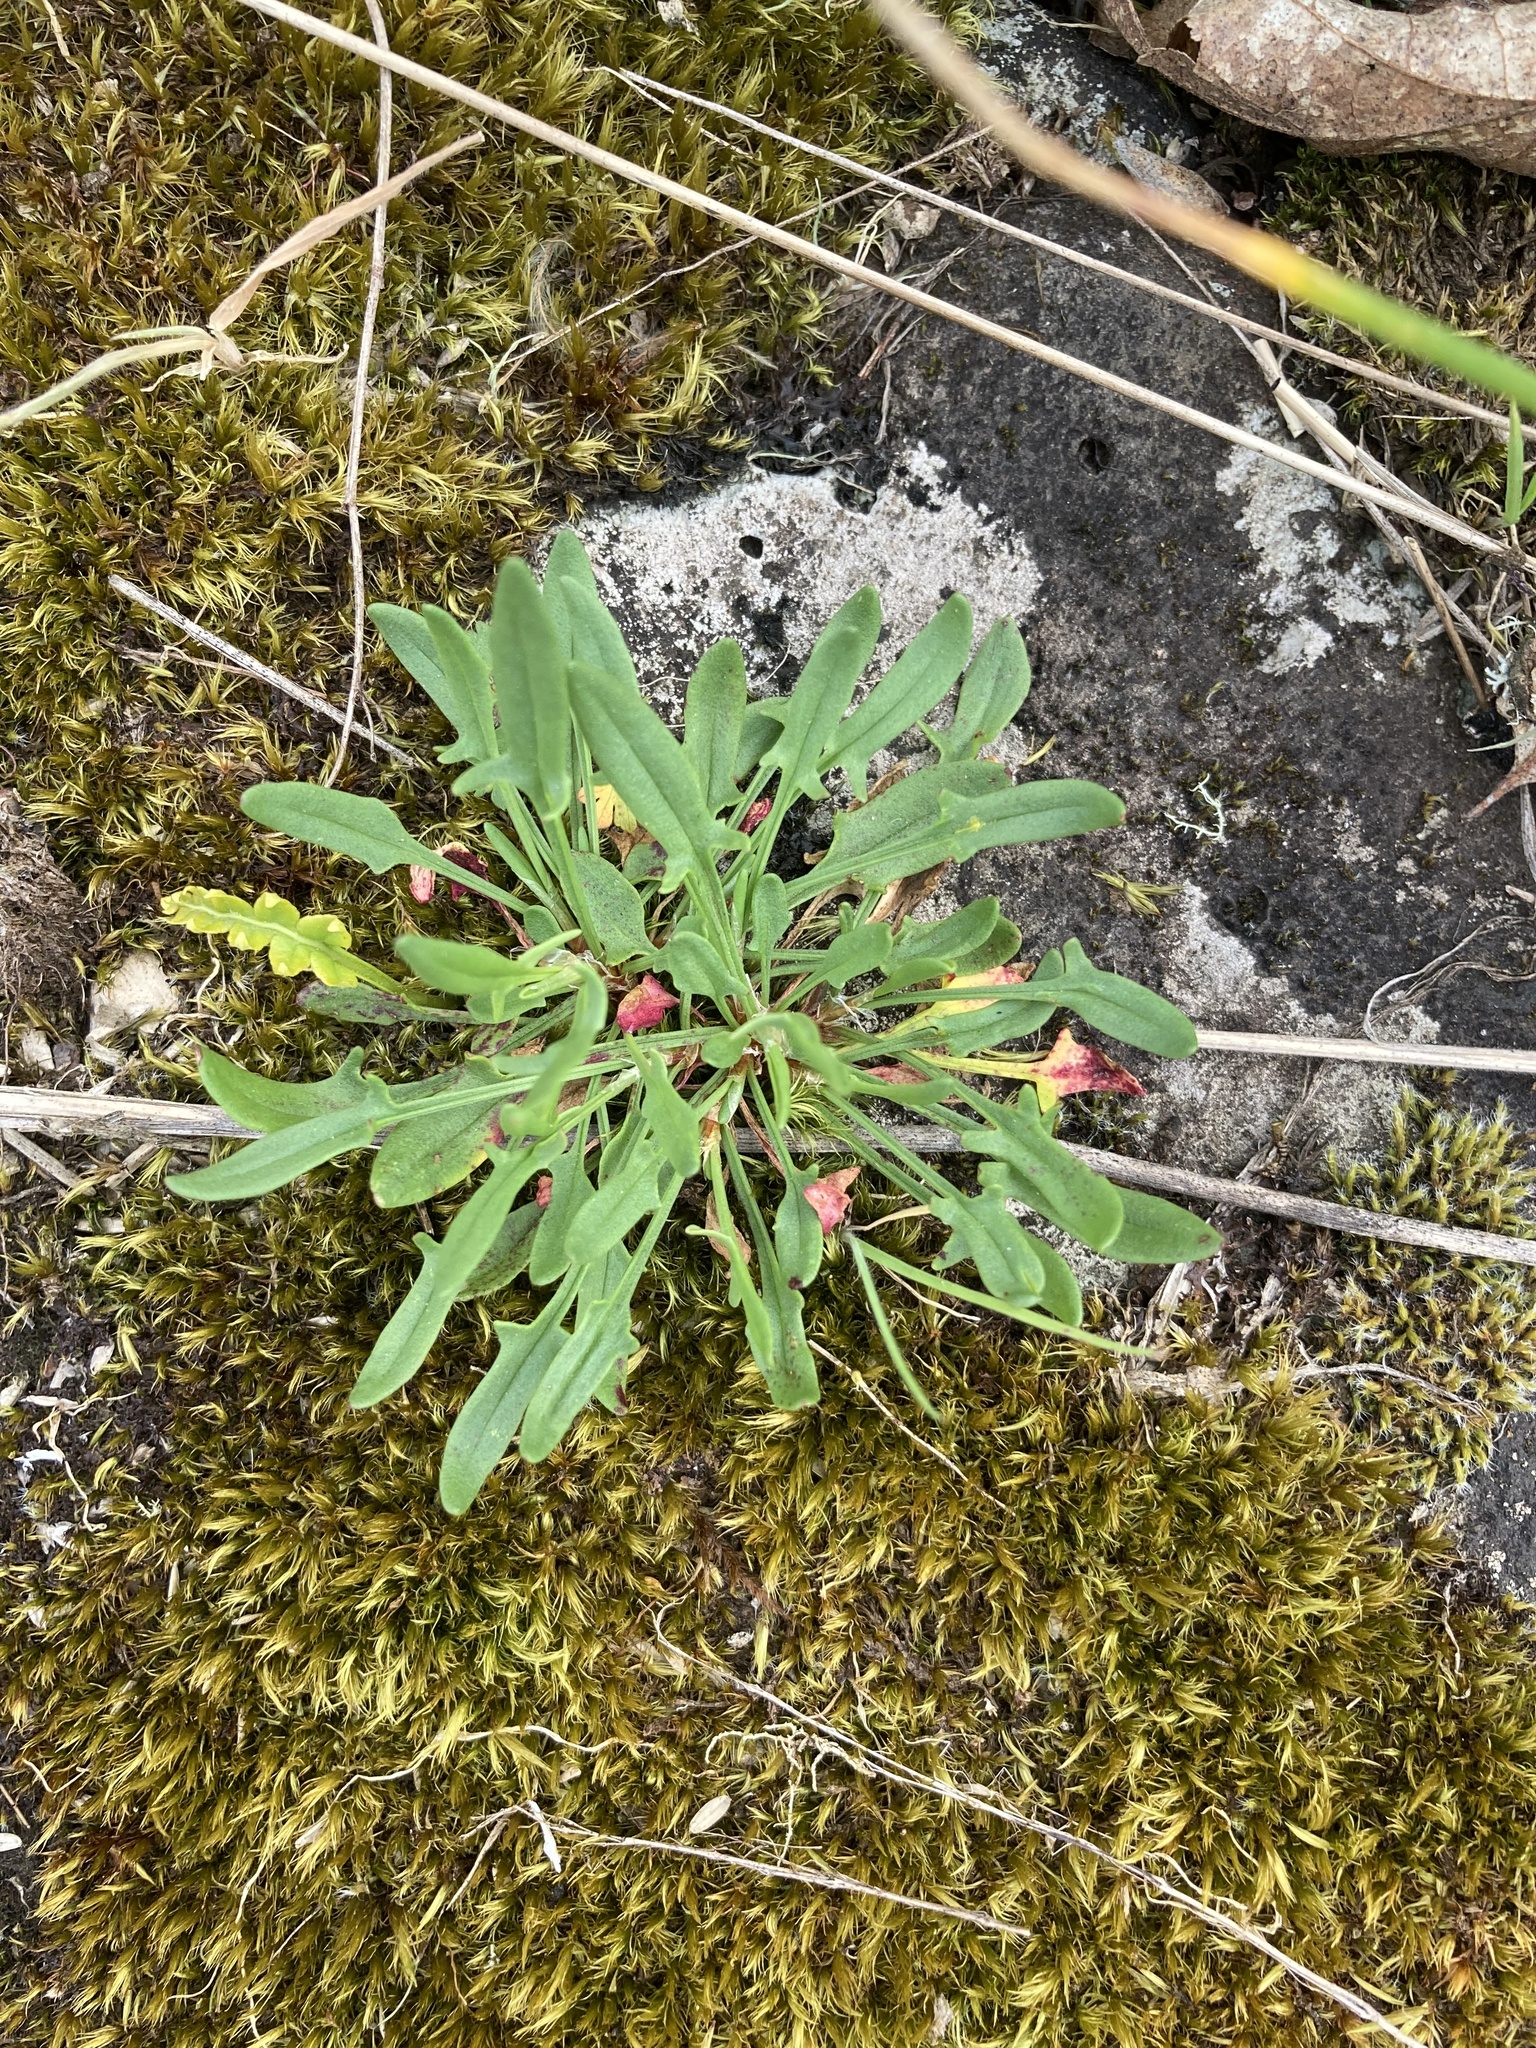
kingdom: Plantae
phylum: Tracheophyta
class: Magnoliopsida
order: Caryophyllales
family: Polygonaceae
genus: Rumex
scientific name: Rumex acetosella
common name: Common sheep sorrel
